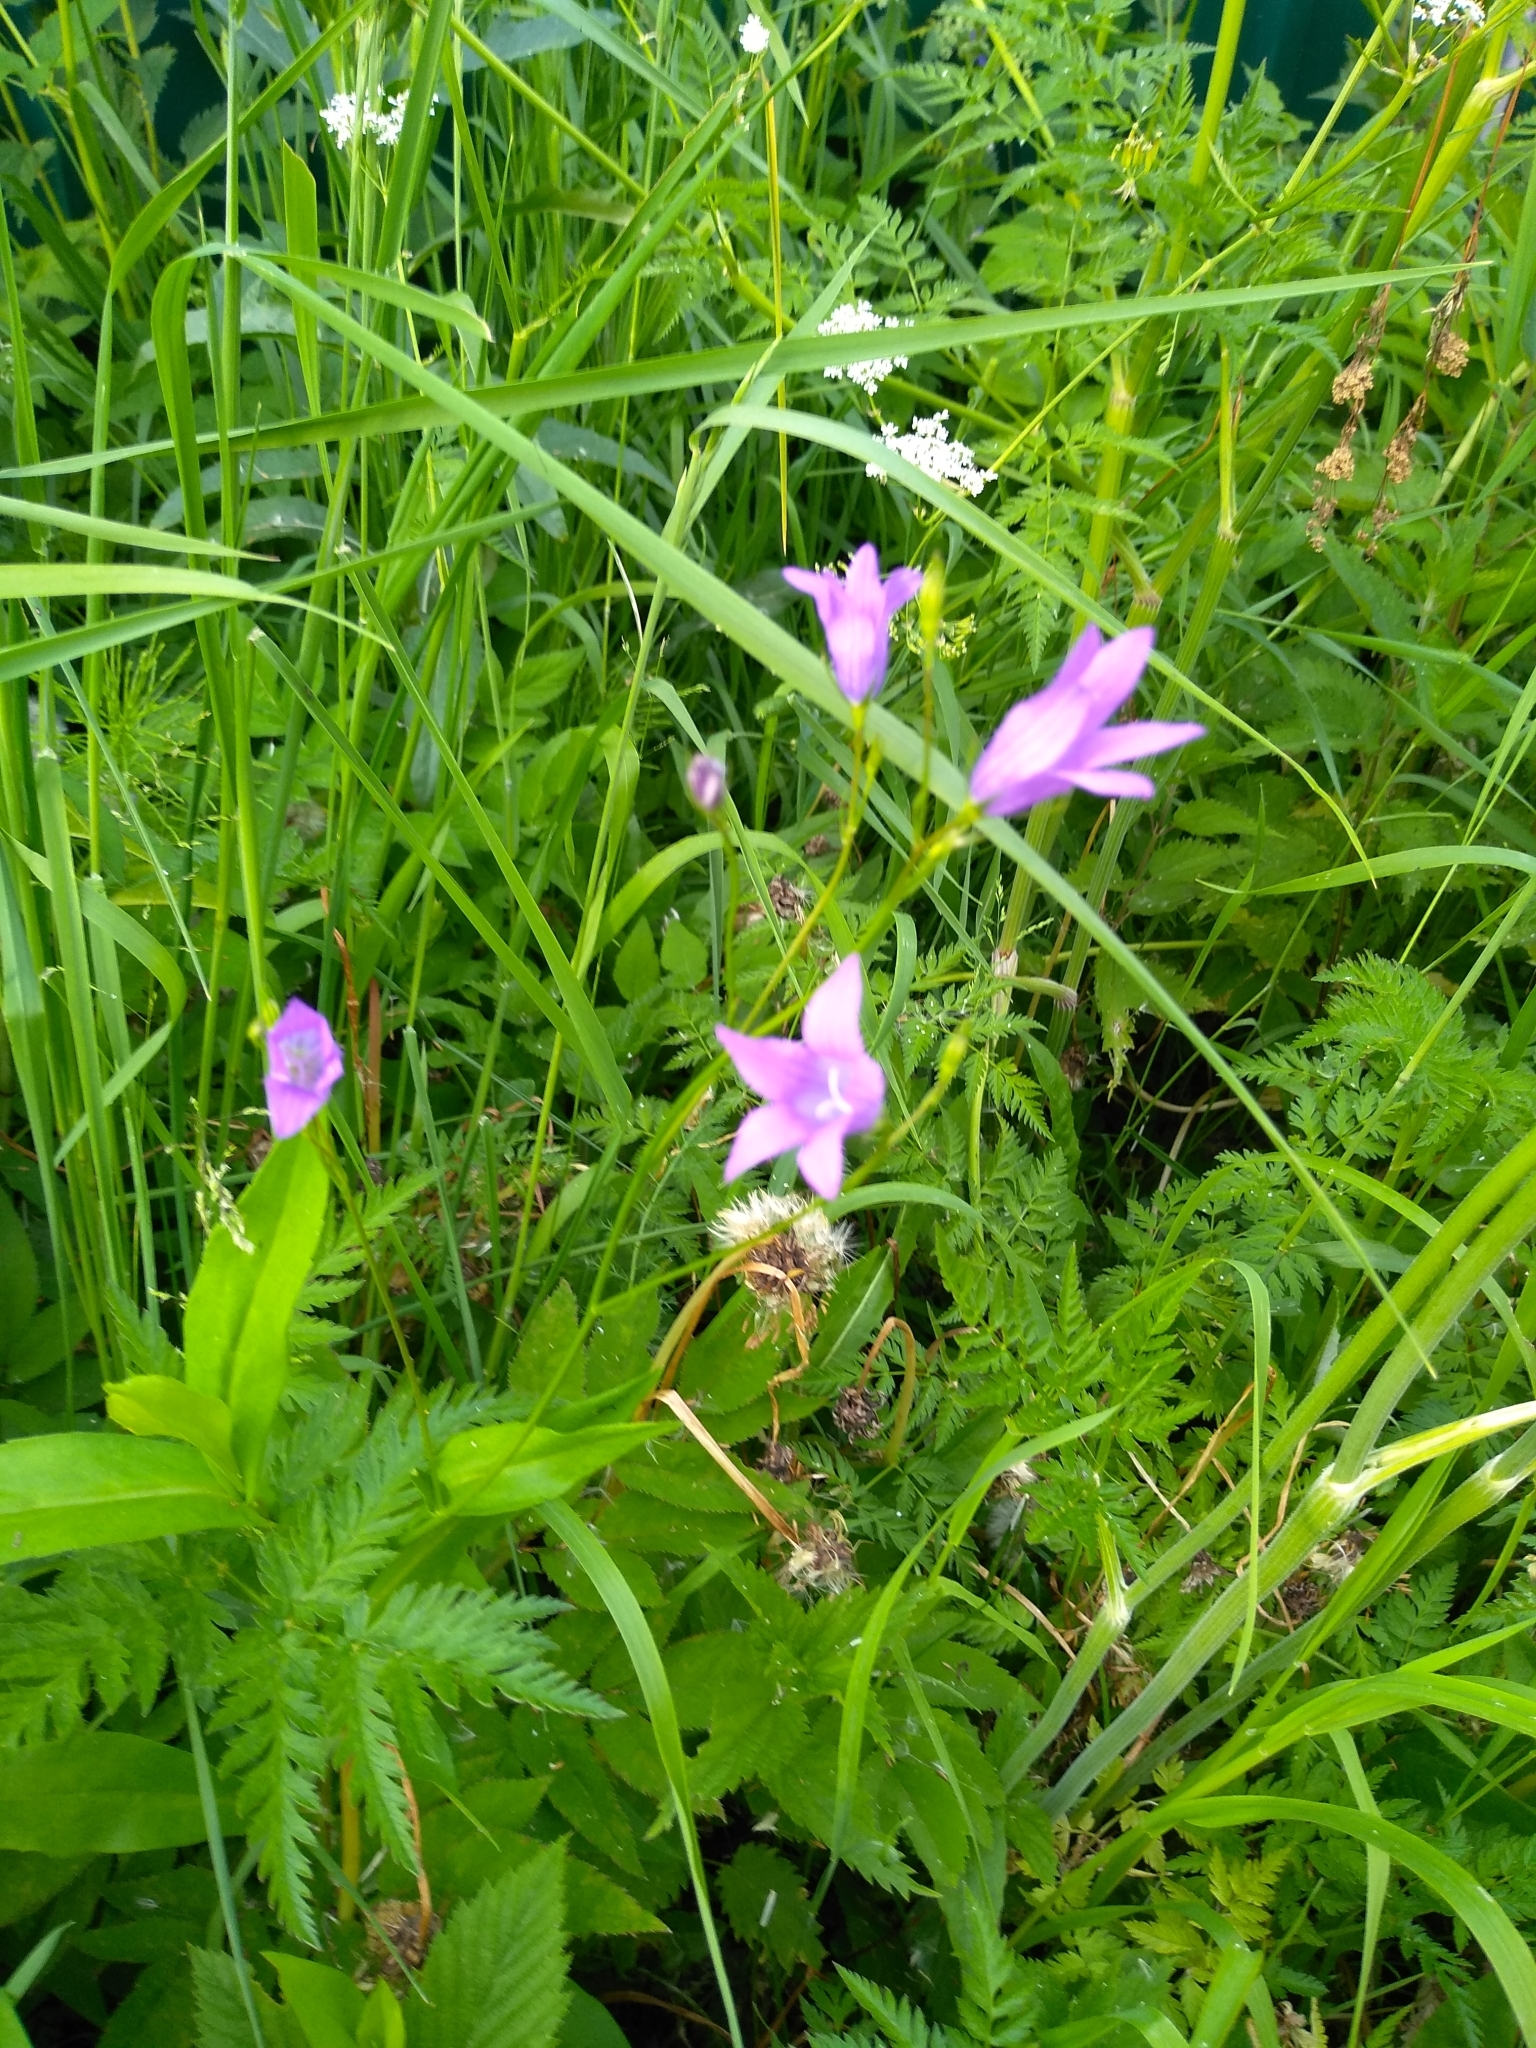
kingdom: Plantae
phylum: Tracheophyta
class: Magnoliopsida
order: Asterales
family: Campanulaceae
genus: Campanula
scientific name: Campanula patula
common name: Spreading bellflower
